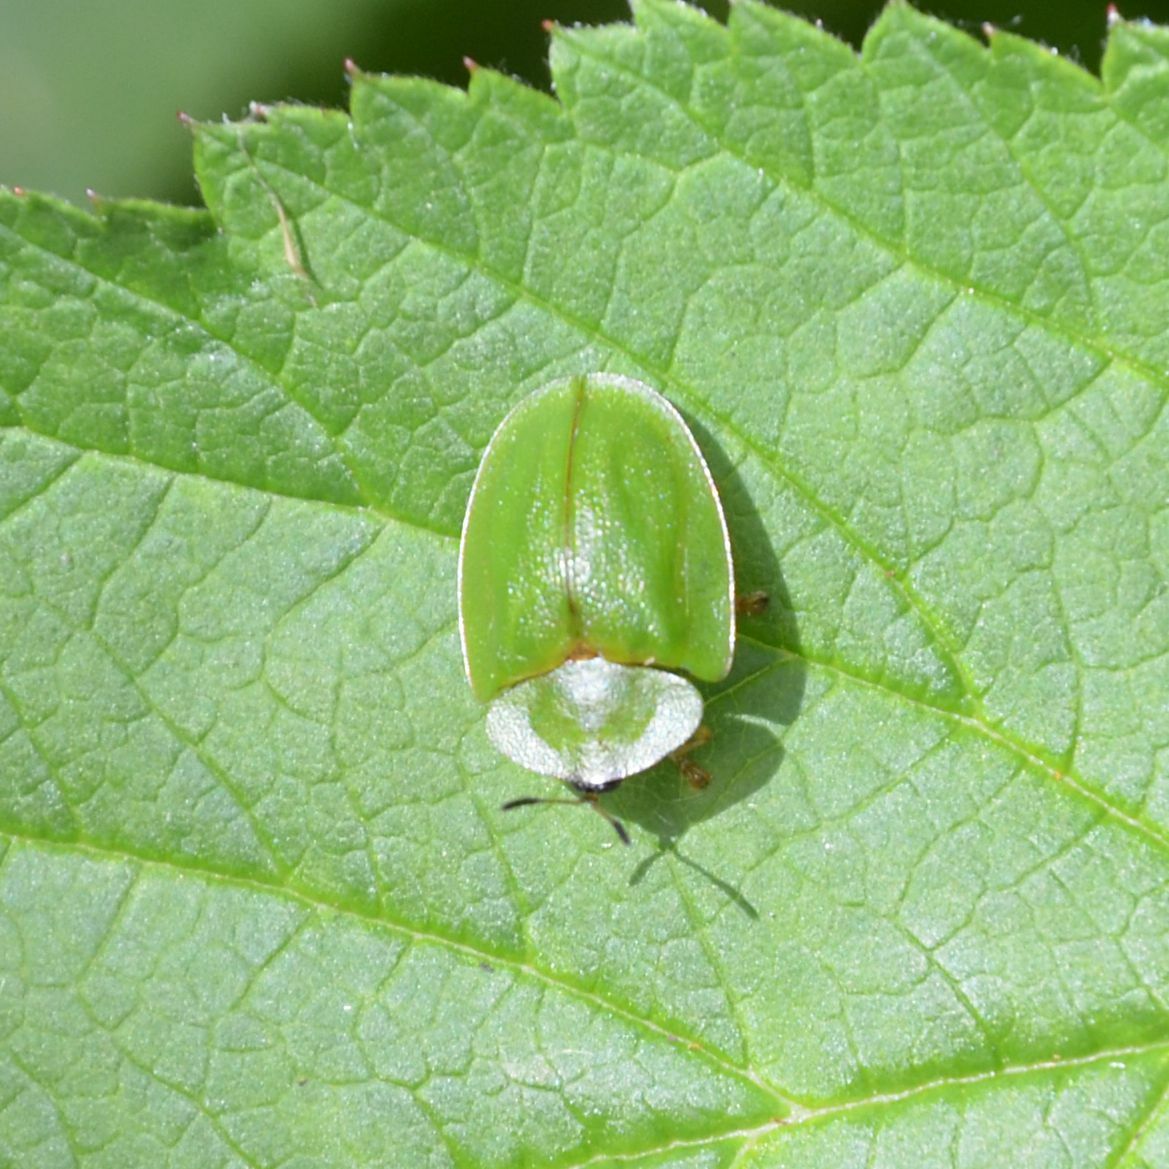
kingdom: Animalia
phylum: Arthropoda
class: Insecta
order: Coleoptera
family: Chrysomelidae
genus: Cassida
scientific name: Cassida viridis
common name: Green tortoise beetle
